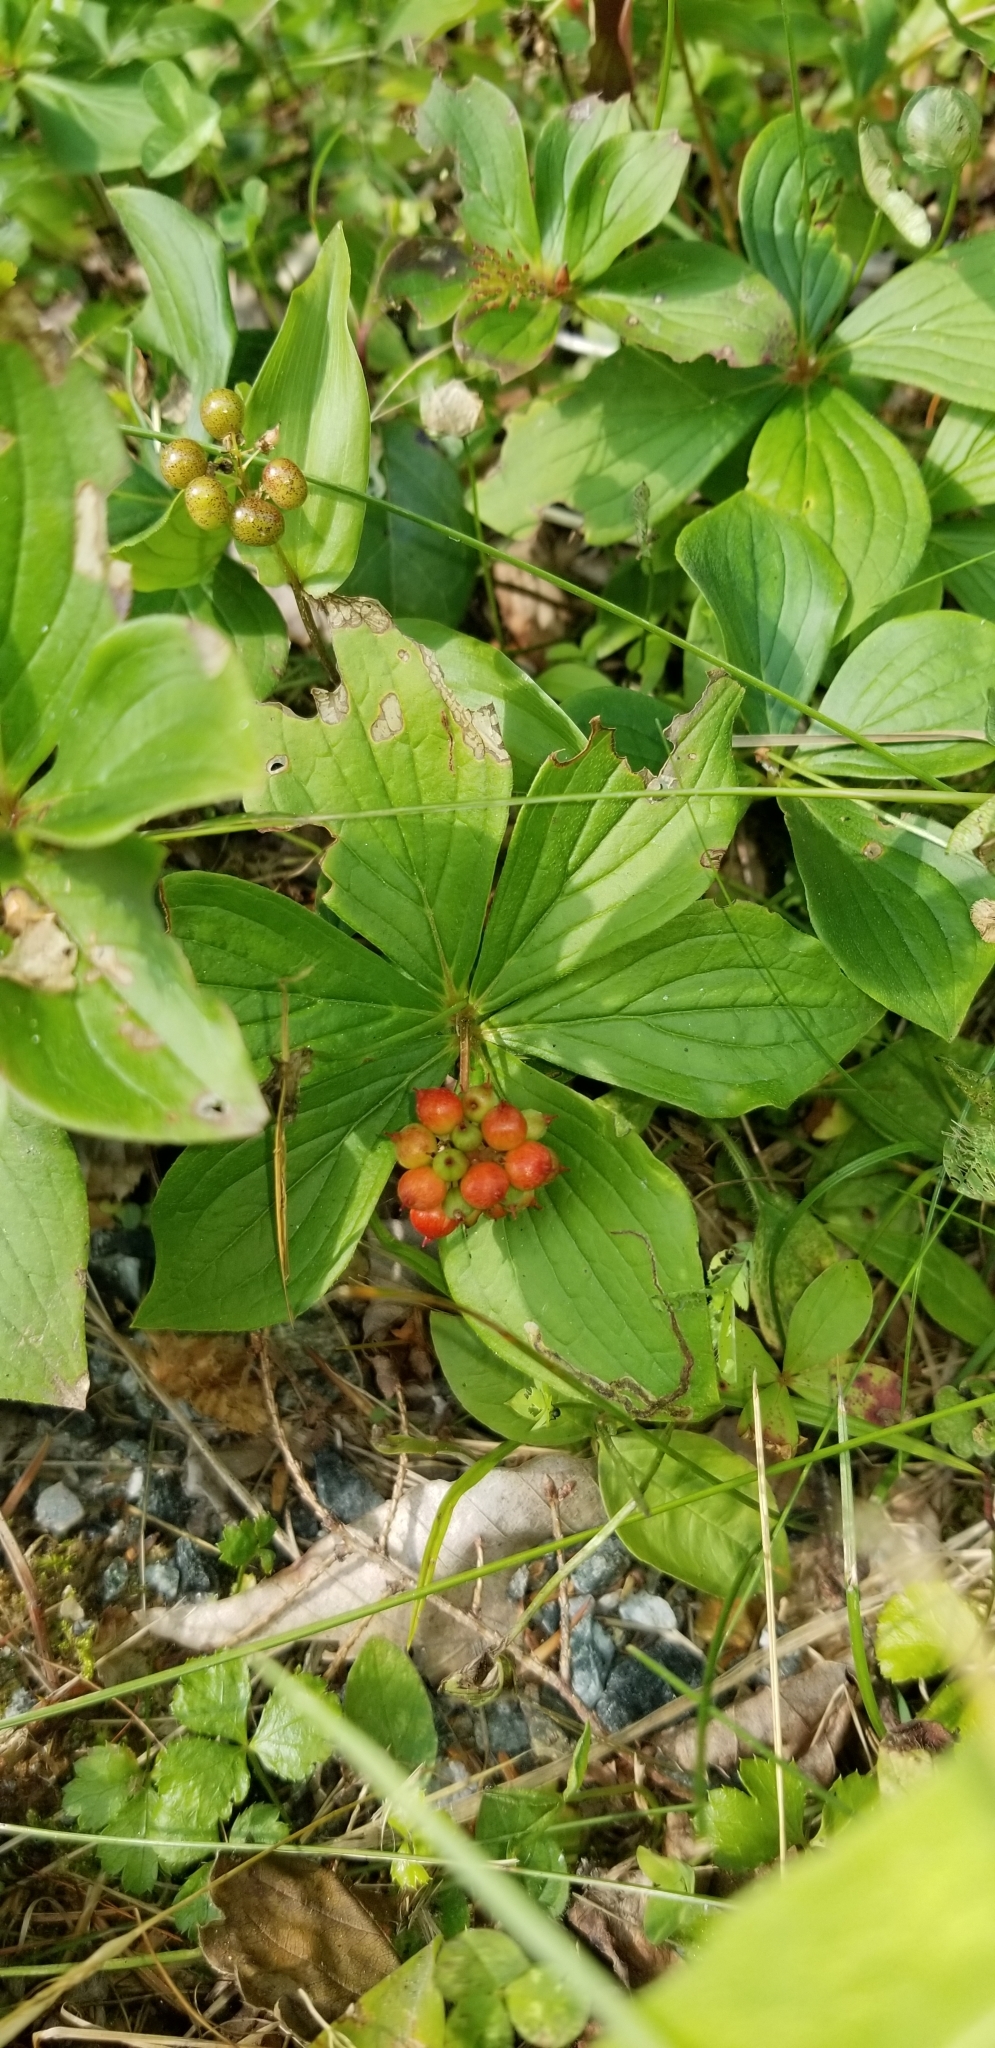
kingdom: Plantae
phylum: Tracheophyta
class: Magnoliopsida
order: Cornales
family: Cornaceae
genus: Cornus
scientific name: Cornus canadensis
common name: Creeping dogwood
